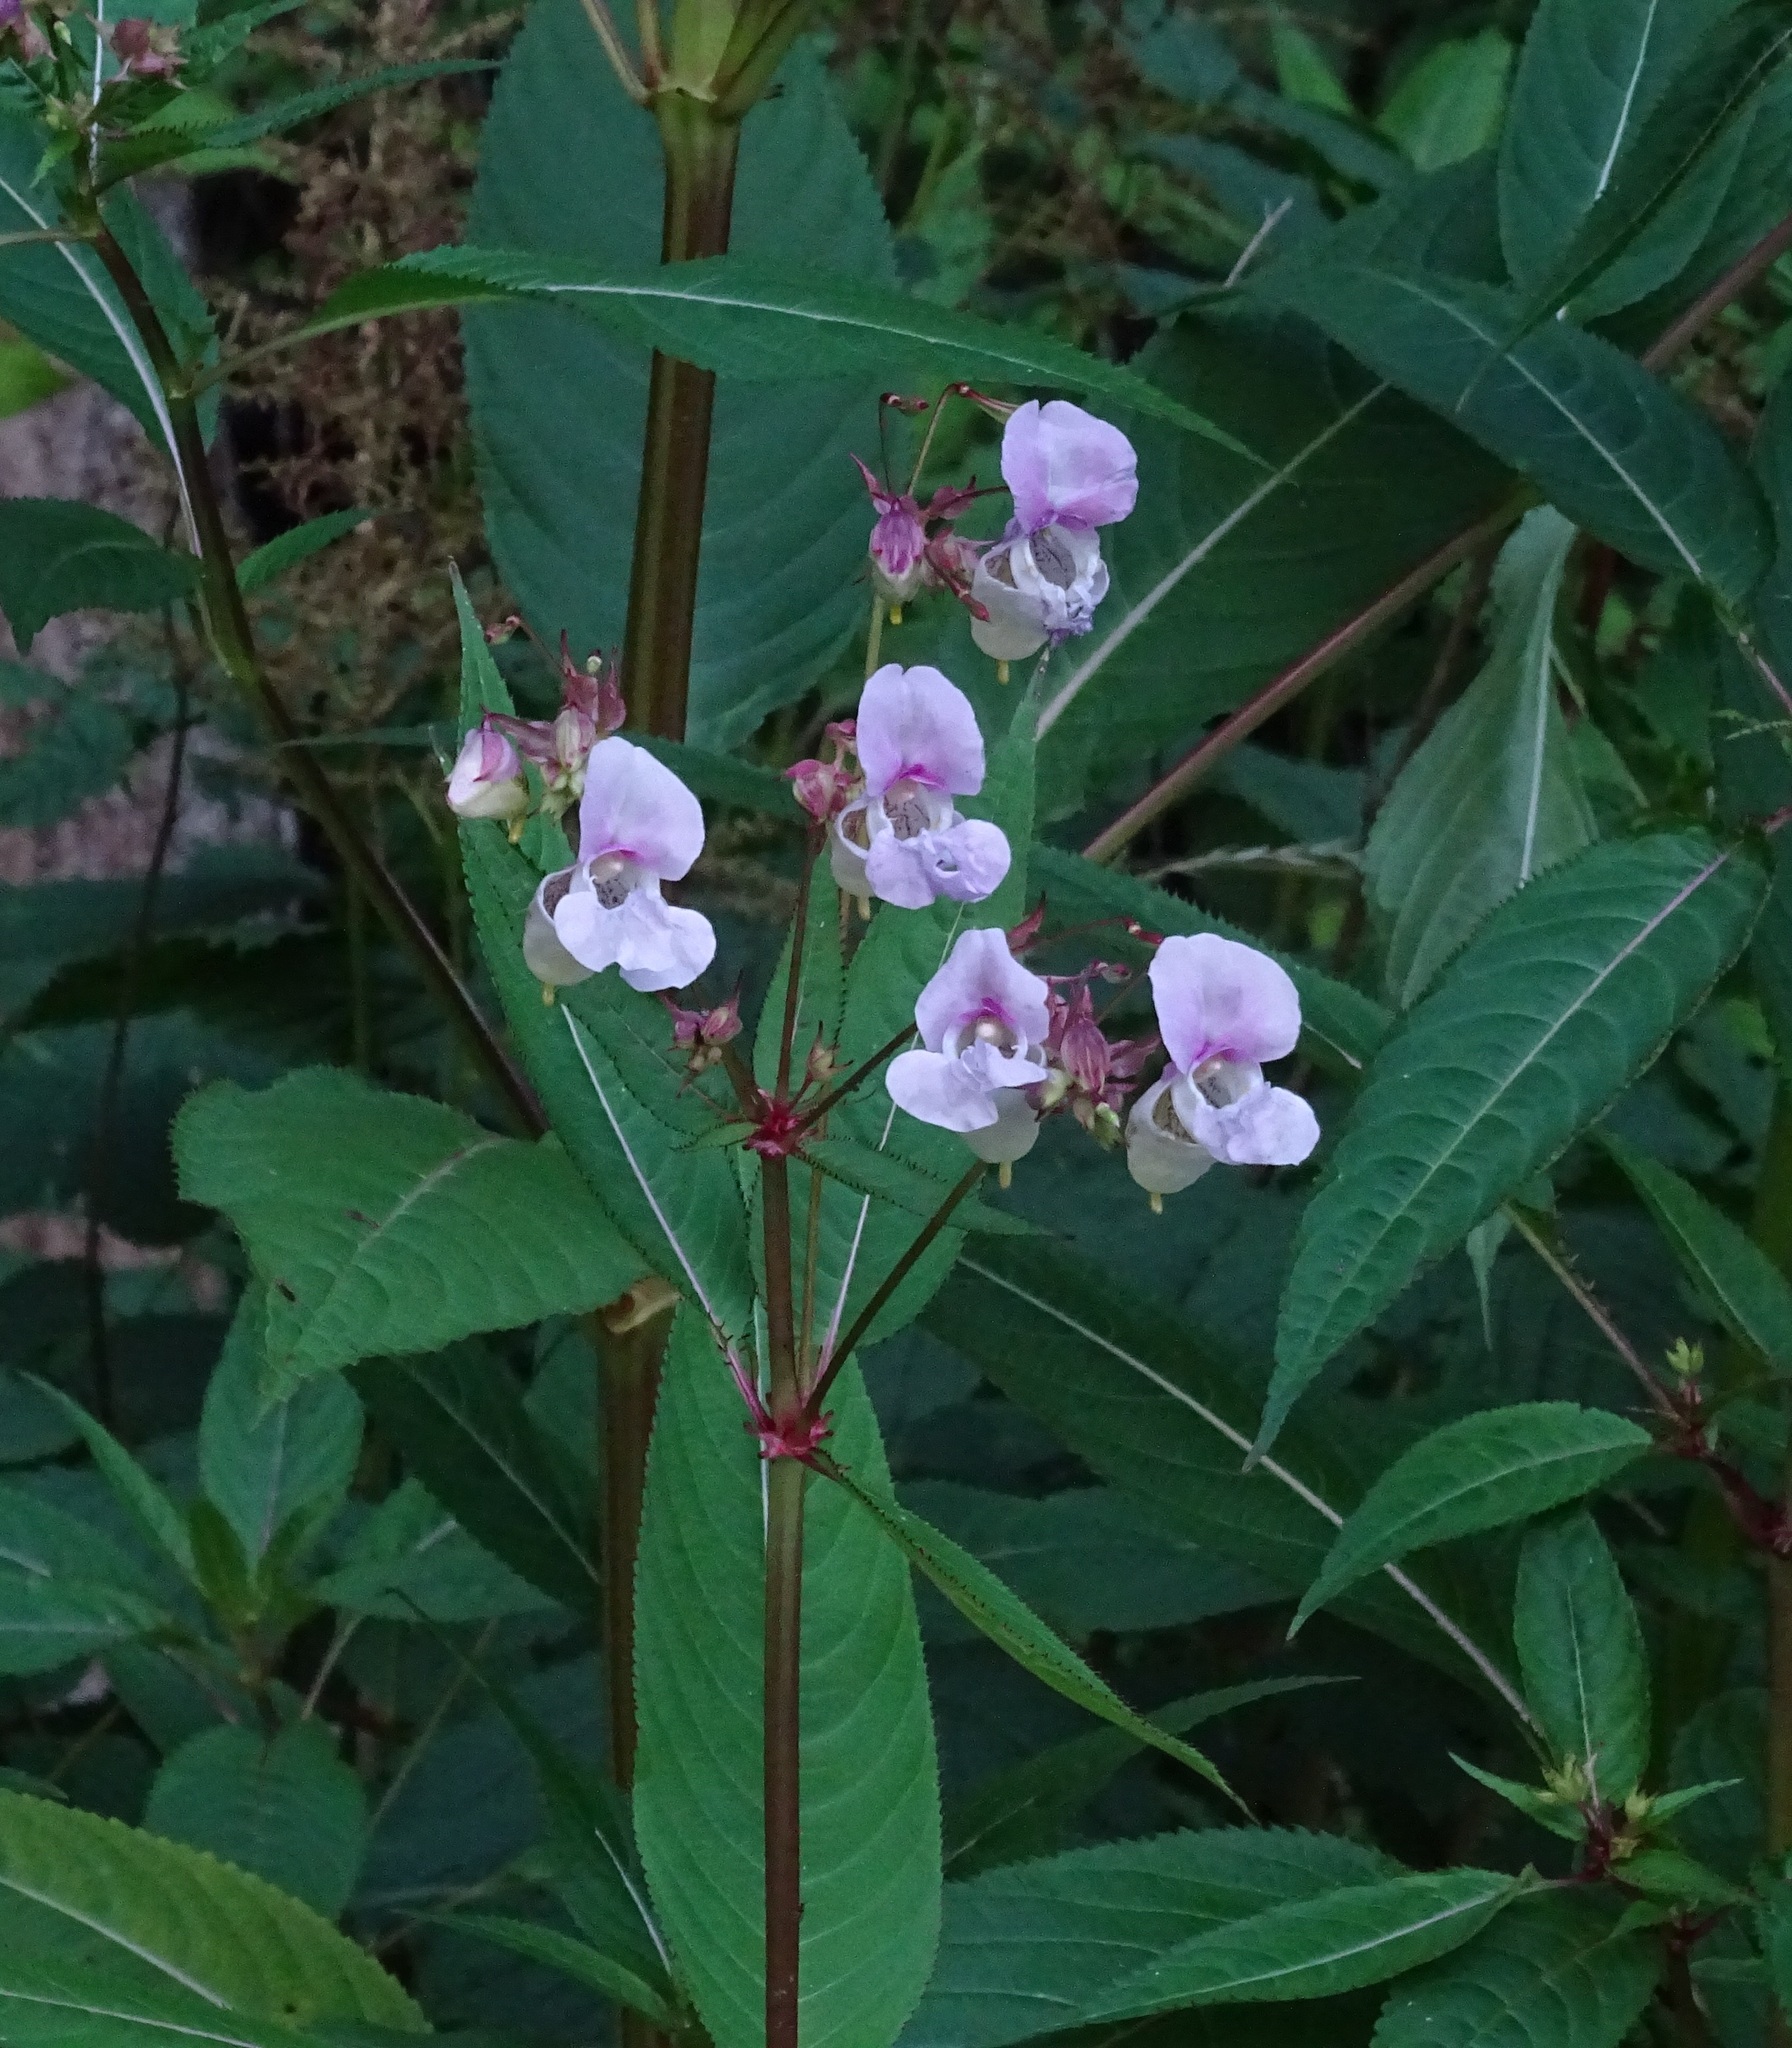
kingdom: Plantae
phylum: Tracheophyta
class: Magnoliopsida
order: Ericales
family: Balsaminaceae
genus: Impatiens
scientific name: Impatiens glandulifera
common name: Himalayan balsam
